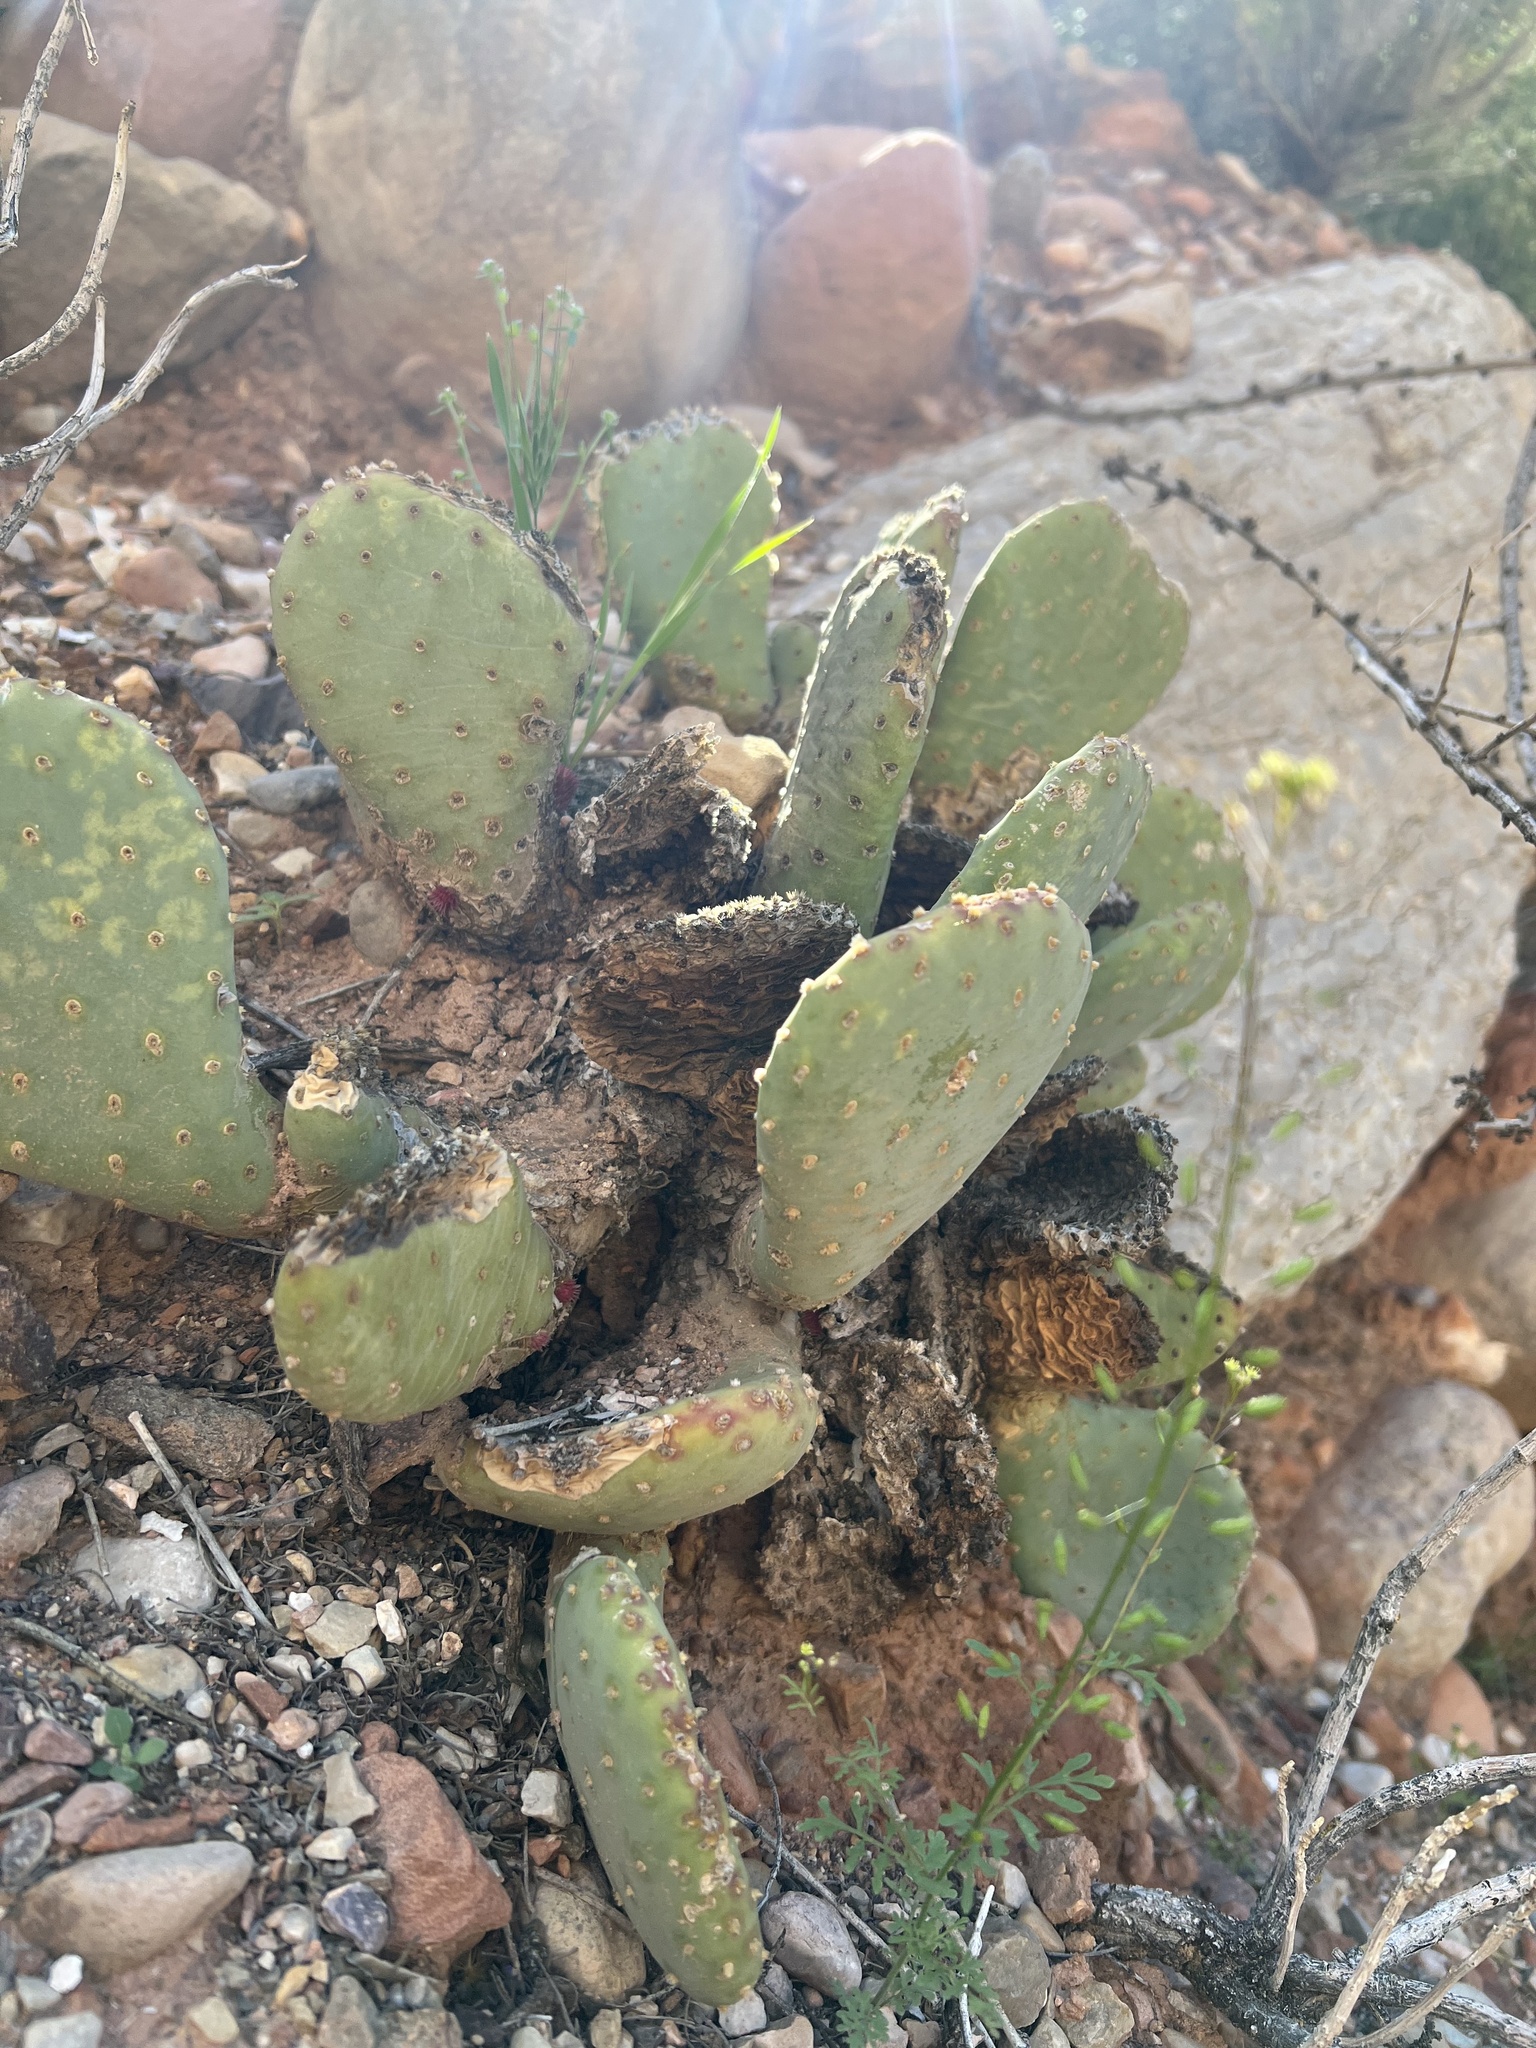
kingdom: Plantae
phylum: Tracheophyta
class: Magnoliopsida
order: Caryophyllales
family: Cactaceae
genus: Opuntia
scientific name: Opuntia basilaris
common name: Beavertail prickly-pear
